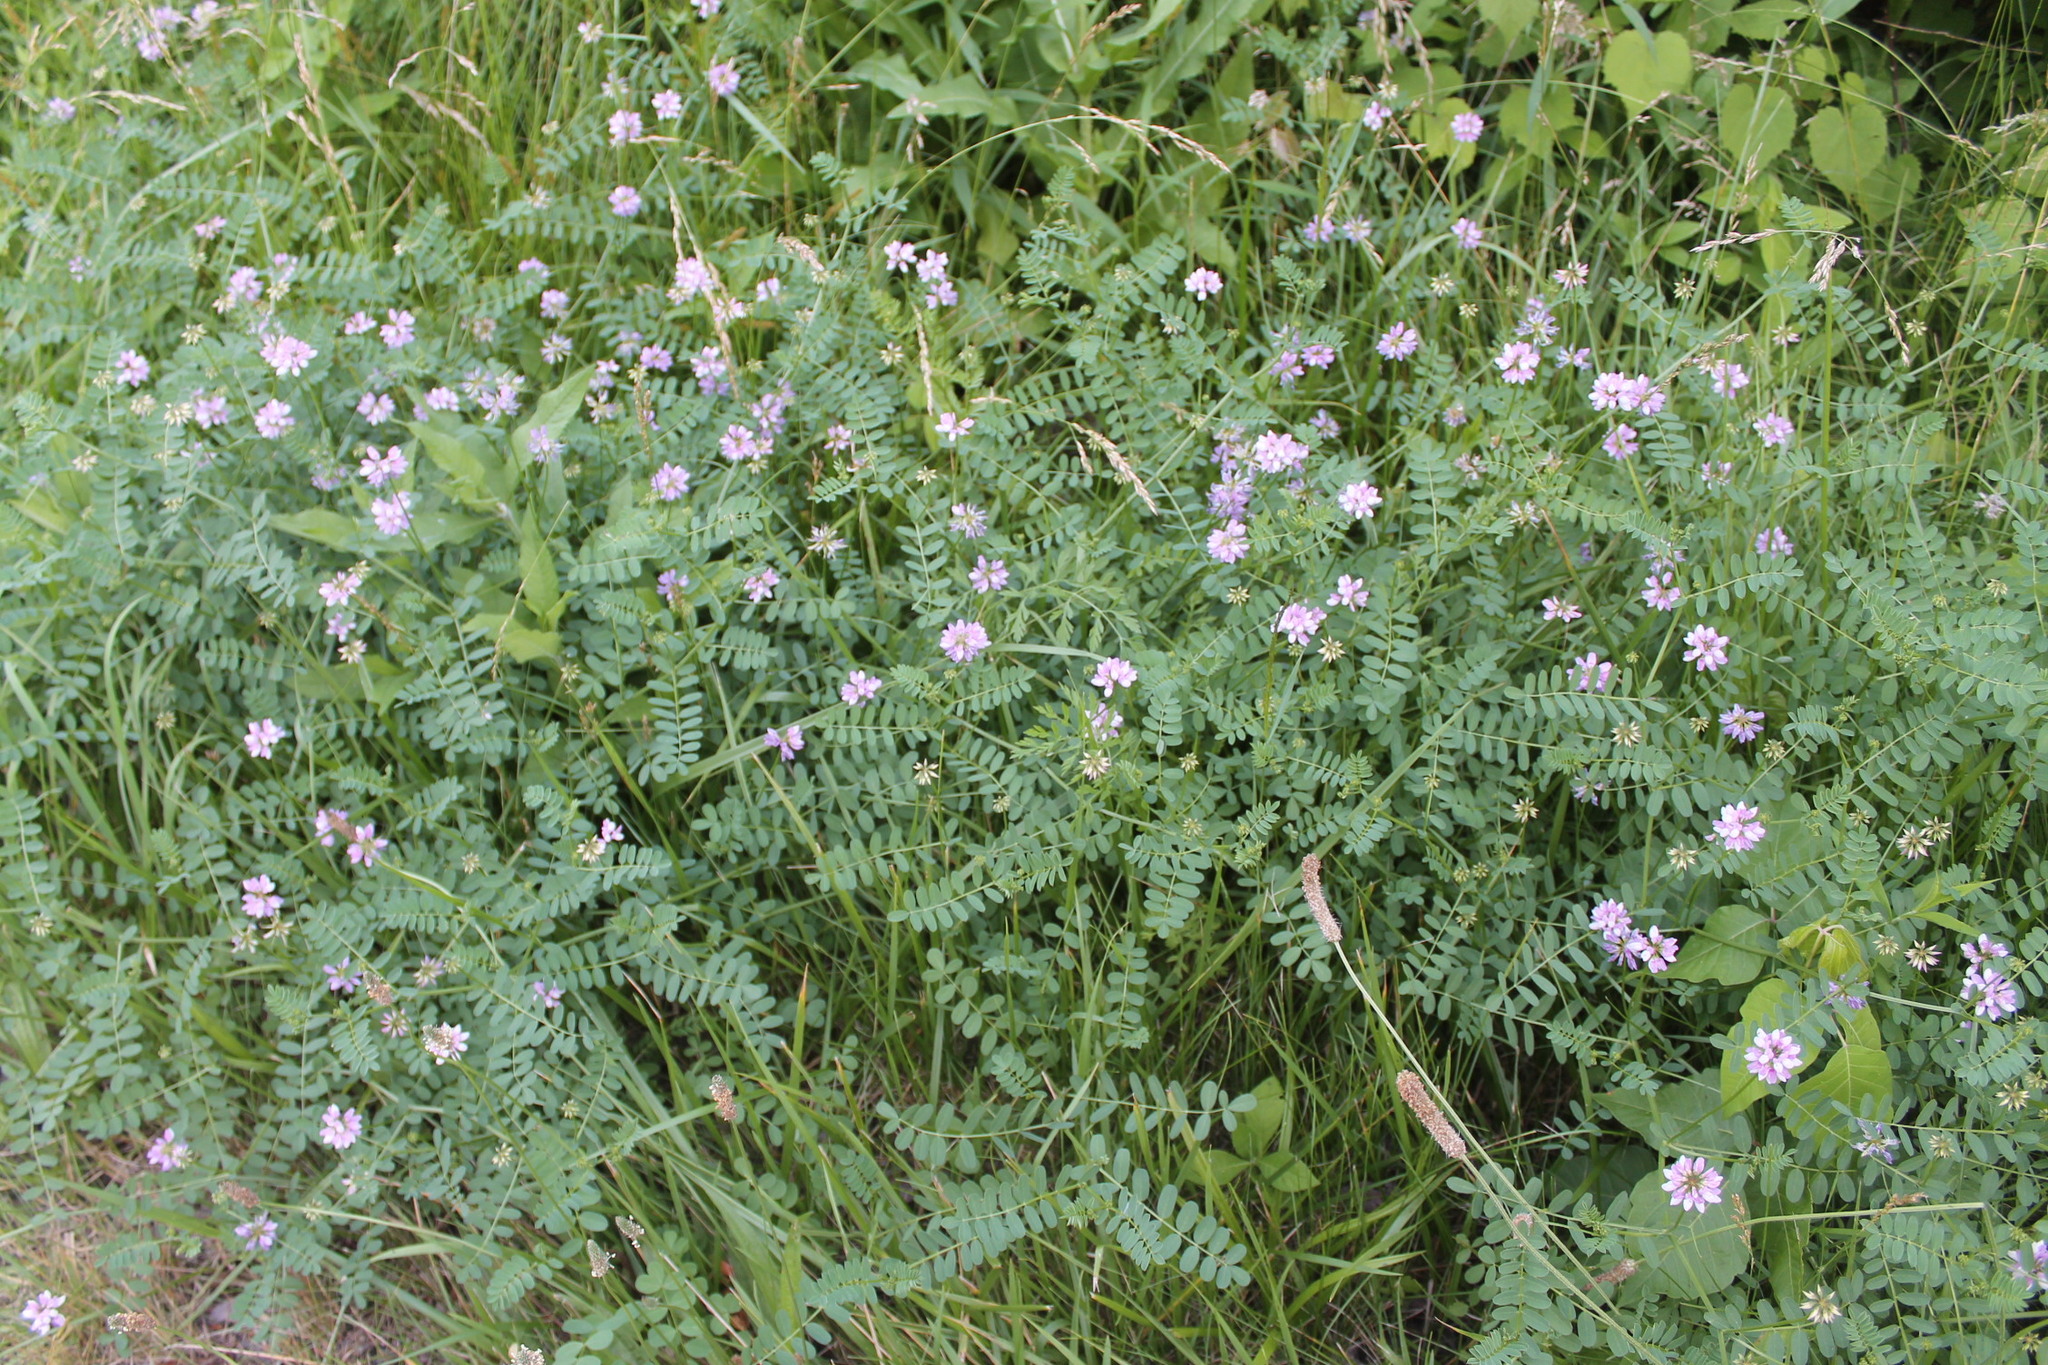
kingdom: Plantae
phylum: Tracheophyta
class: Magnoliopsida
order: Fabales
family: Fabaceae
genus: Coronilla
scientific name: Coronilla varia
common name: Crownvetch
